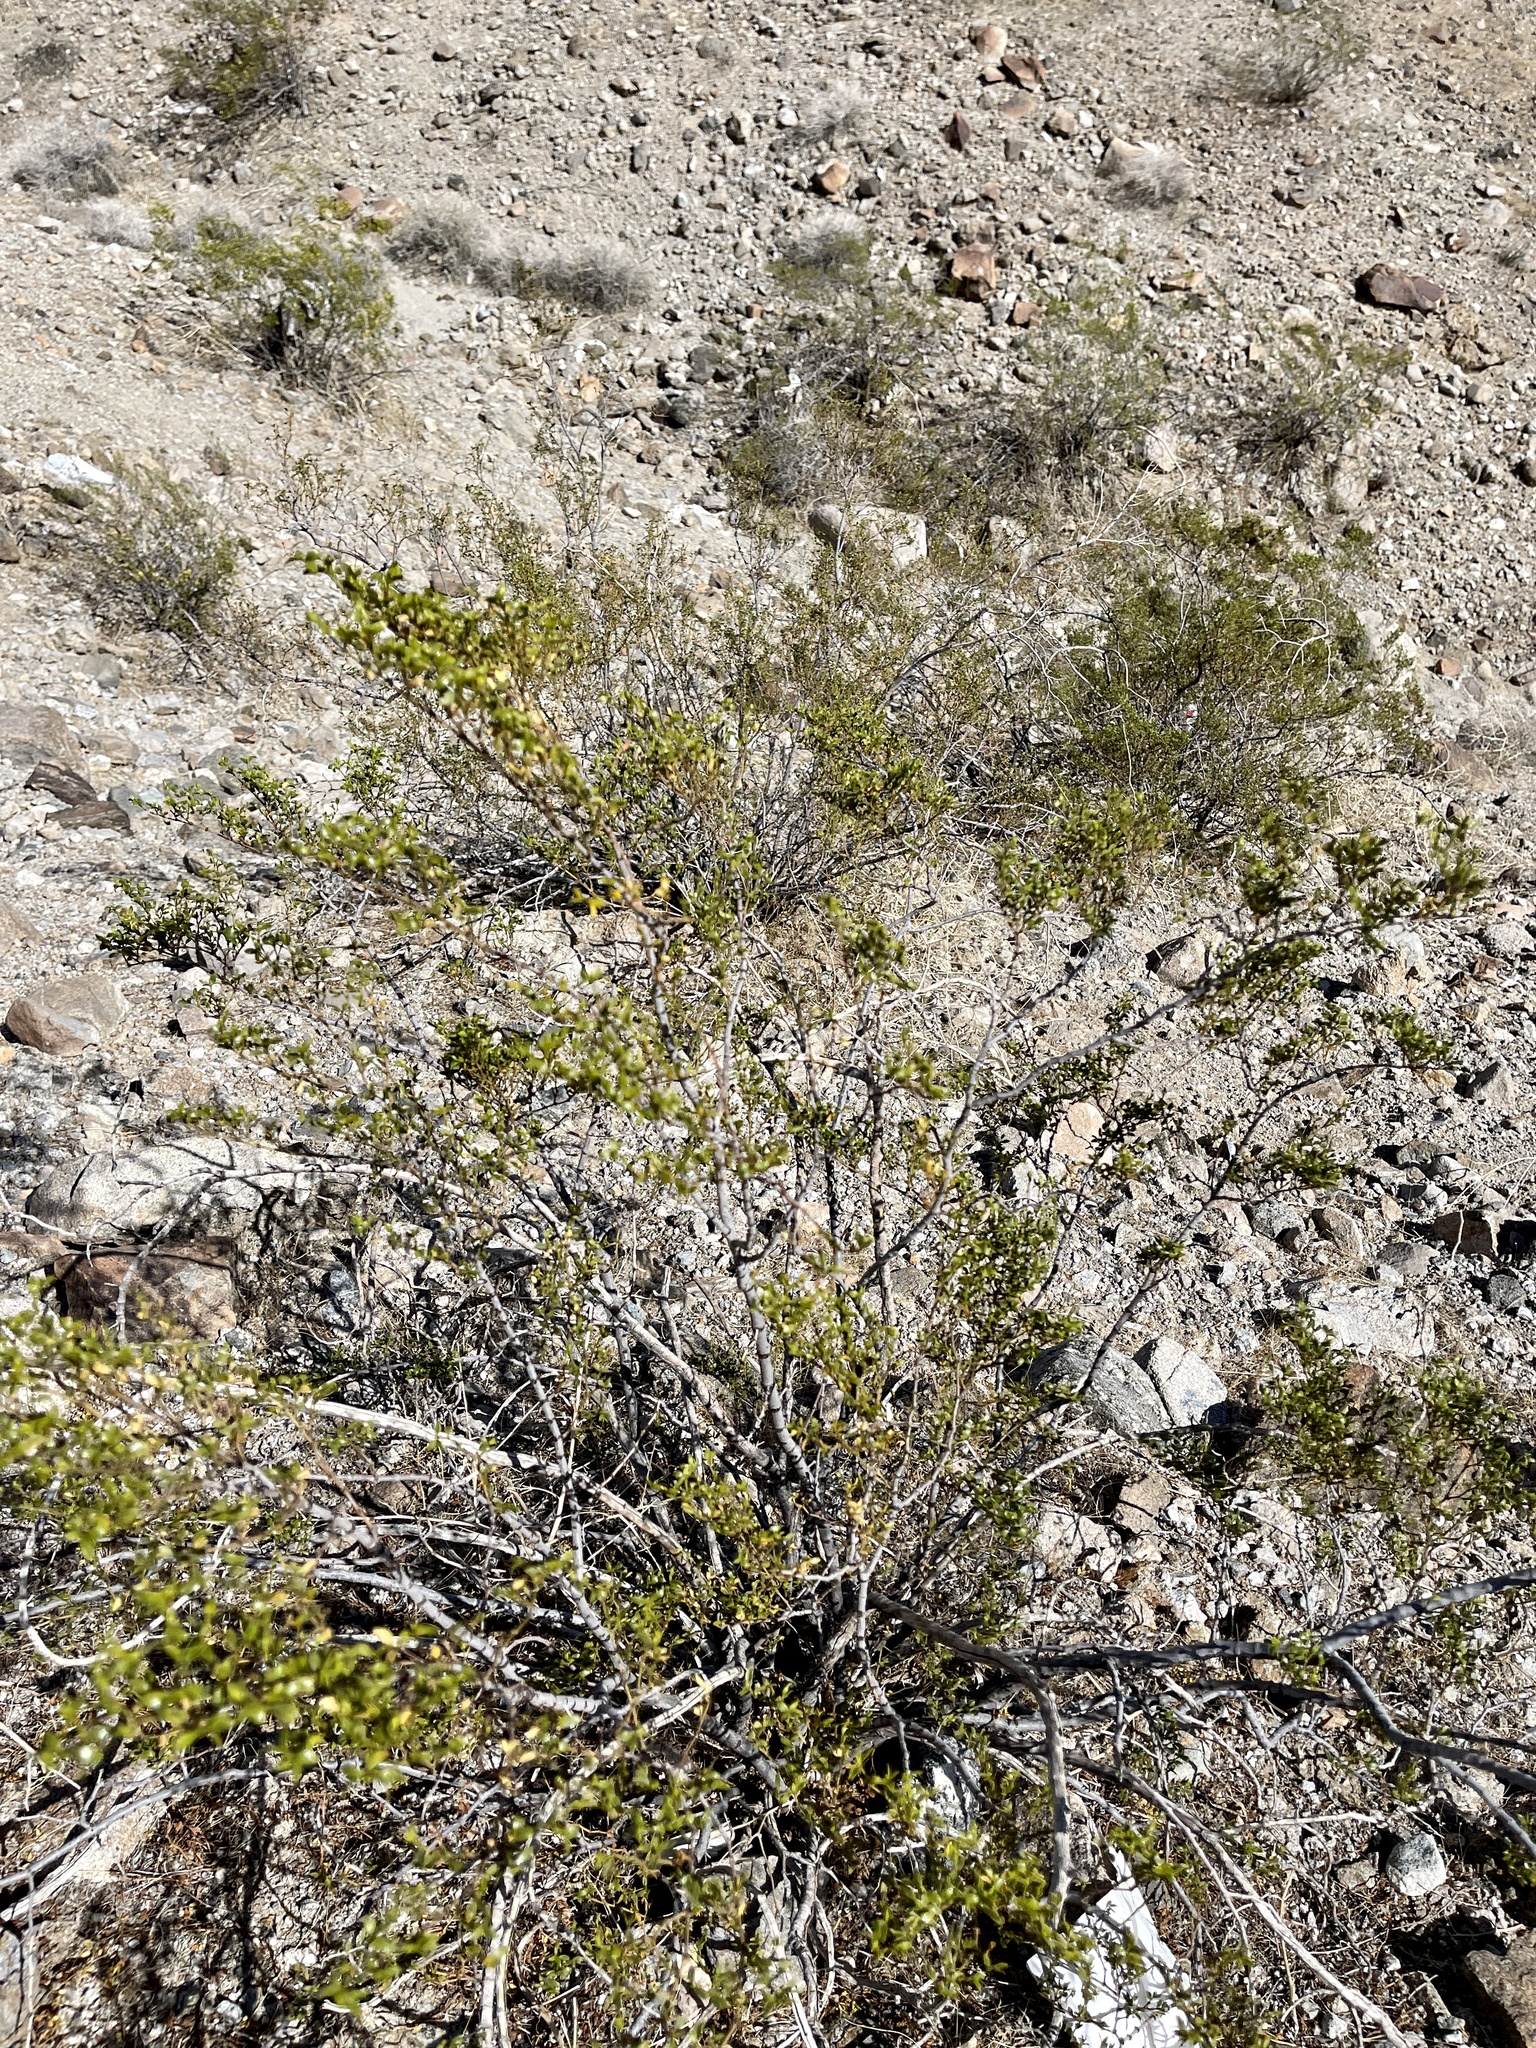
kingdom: Plantae
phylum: Tracheophyta
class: Magnoliopsida
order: Zygophyllales
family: Zygophyllaceae
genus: Larrea
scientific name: Larrea tridentata
